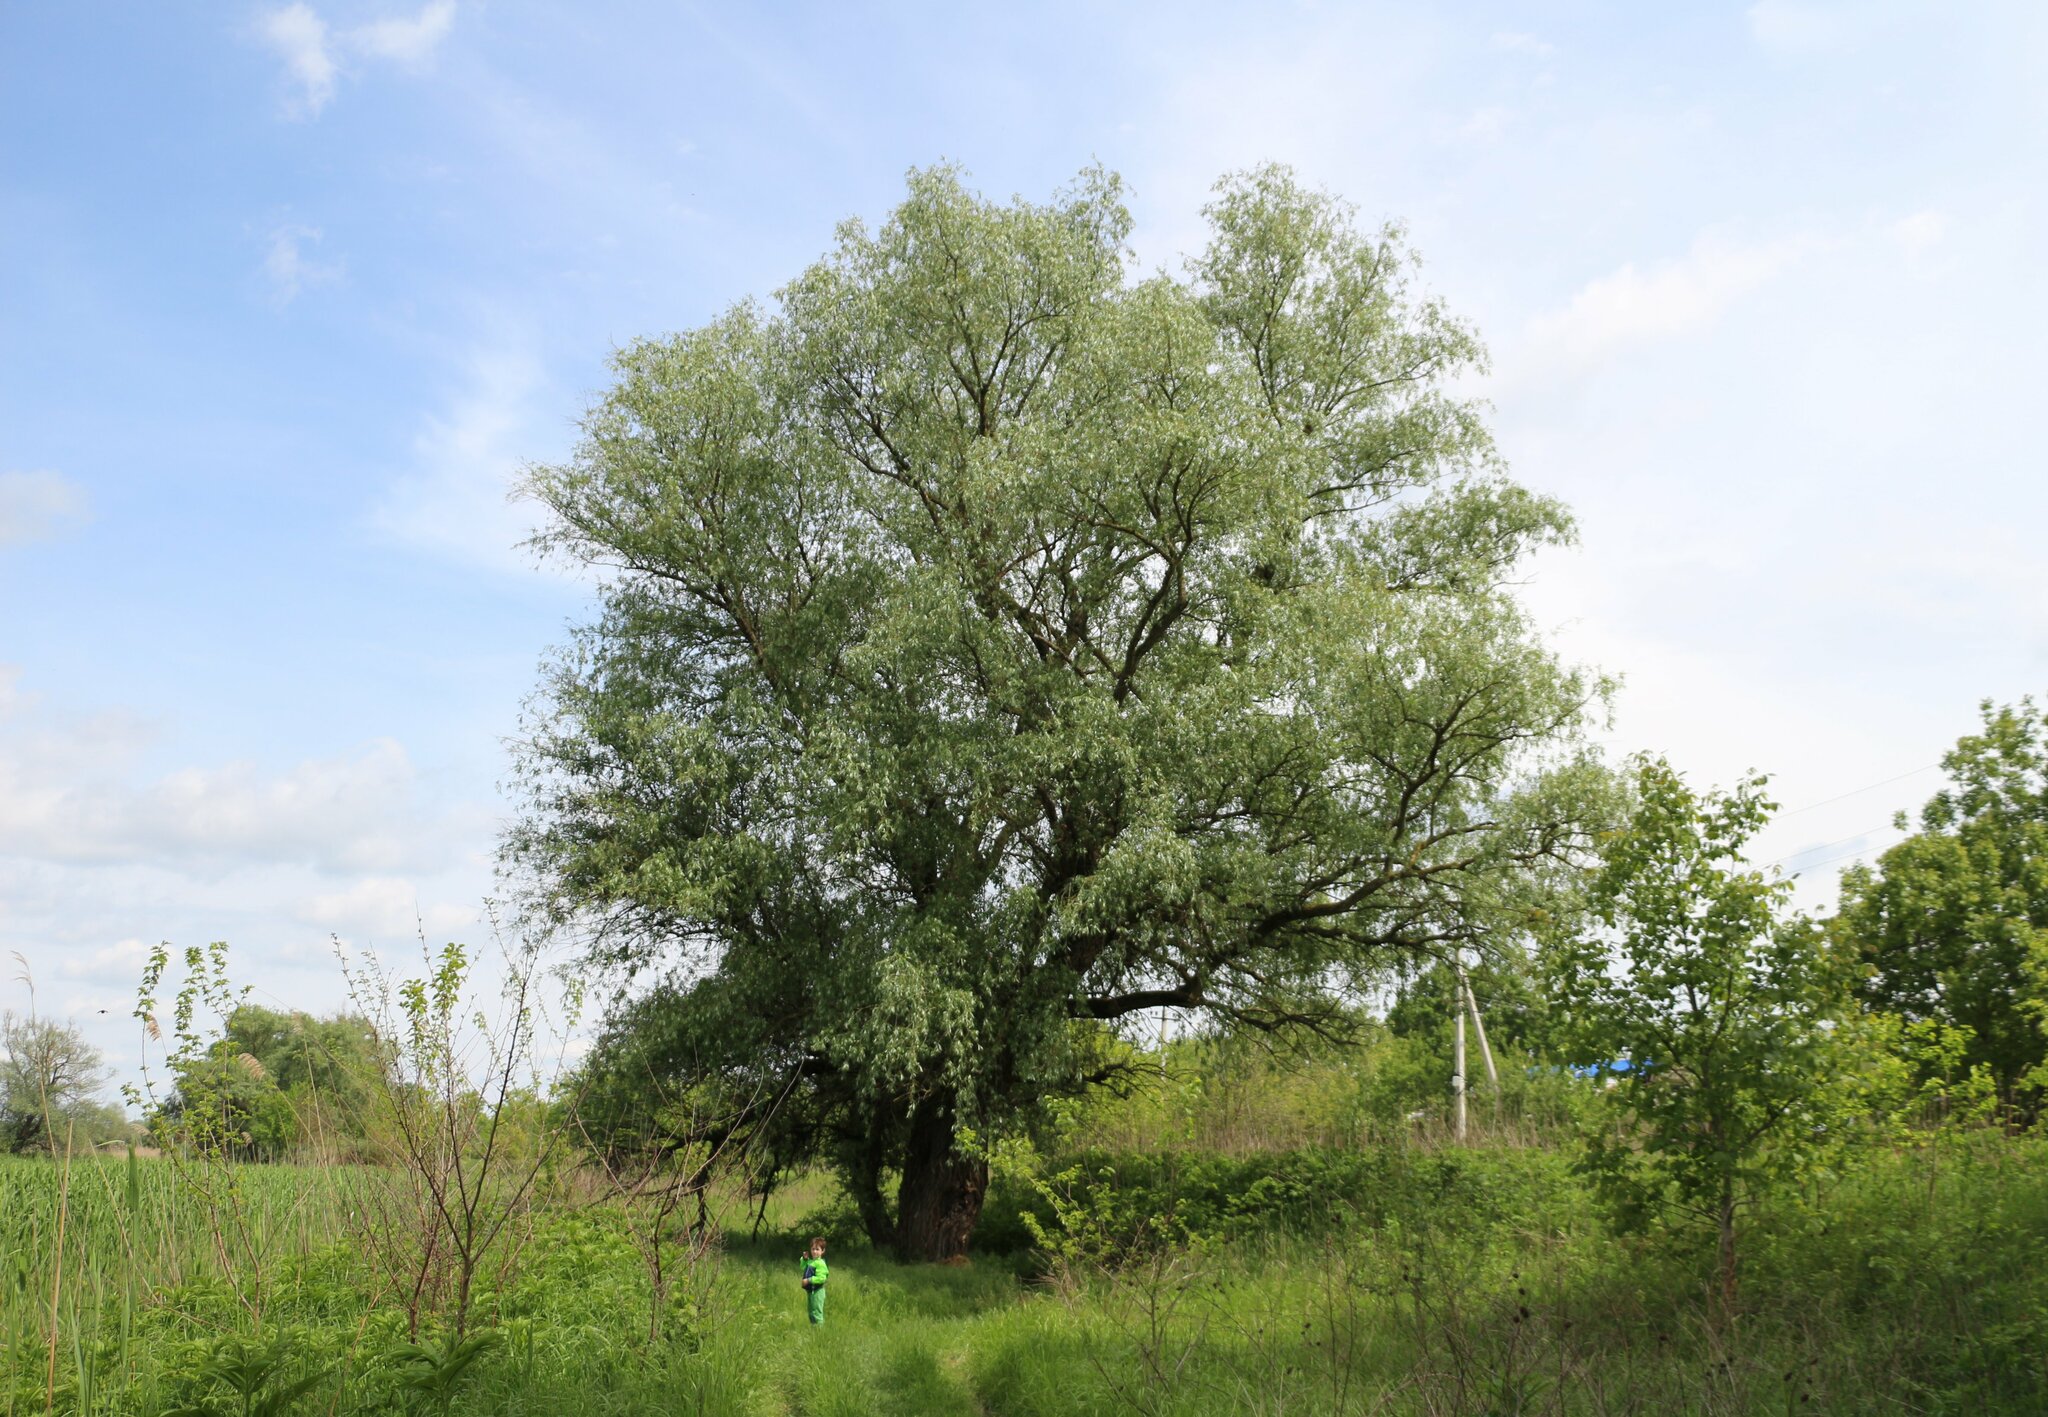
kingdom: Plantae
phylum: Tracheophyta
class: Magnoliopsida
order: Malpighiales
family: Salicaceae
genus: Salix
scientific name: Salix alba
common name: White willow
